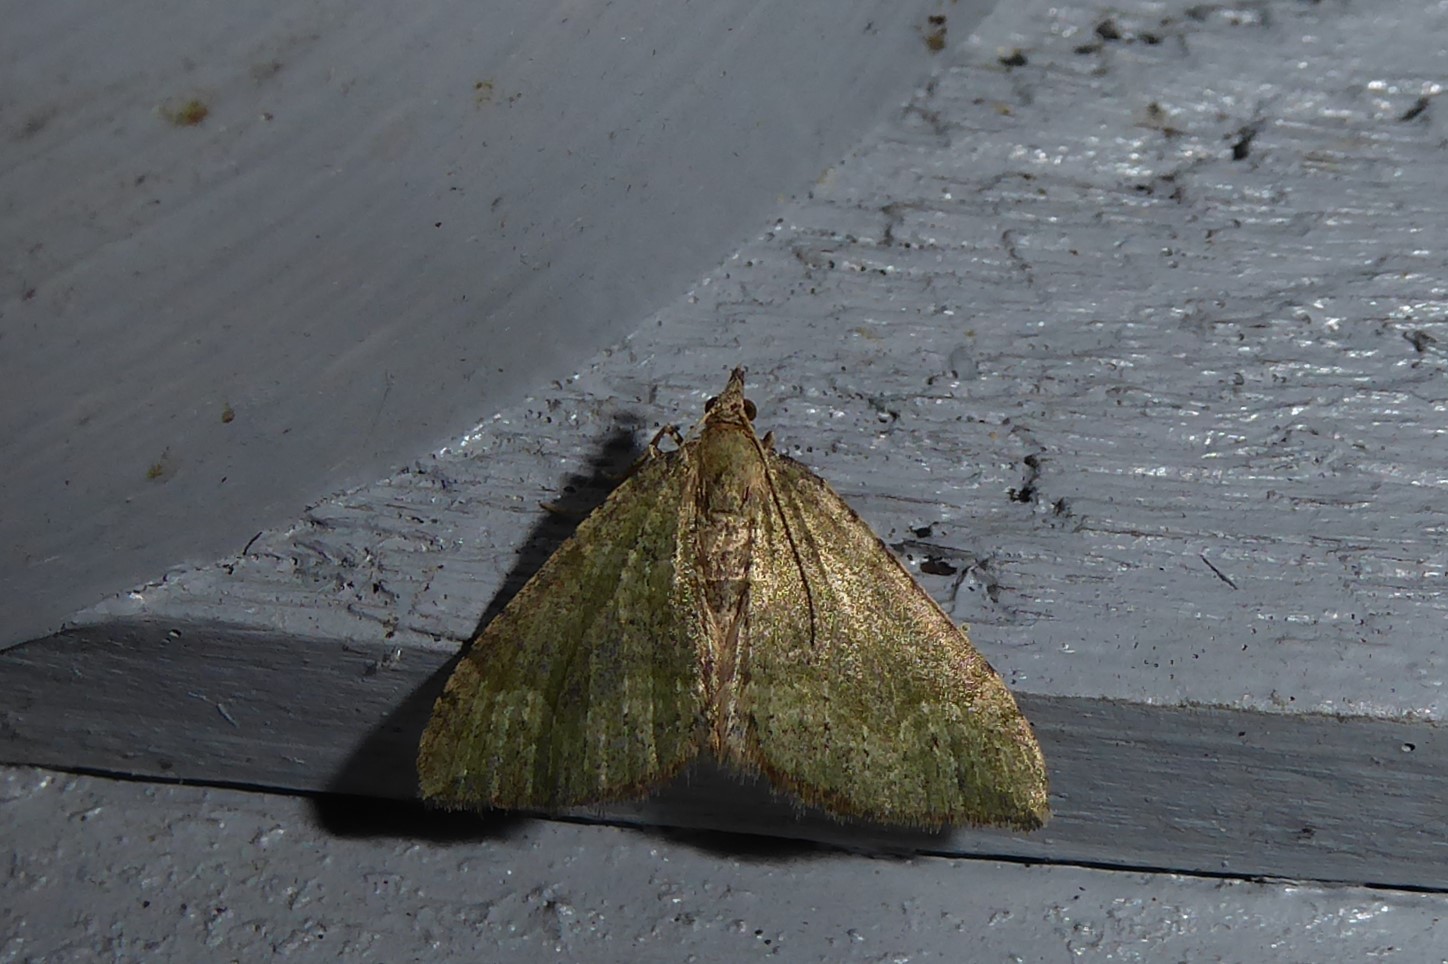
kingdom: Animalia
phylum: Arthropoda
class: Insecta
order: Lepidoptera
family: Geometridae
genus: Epyaxa
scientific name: Epyaxa rosearia
